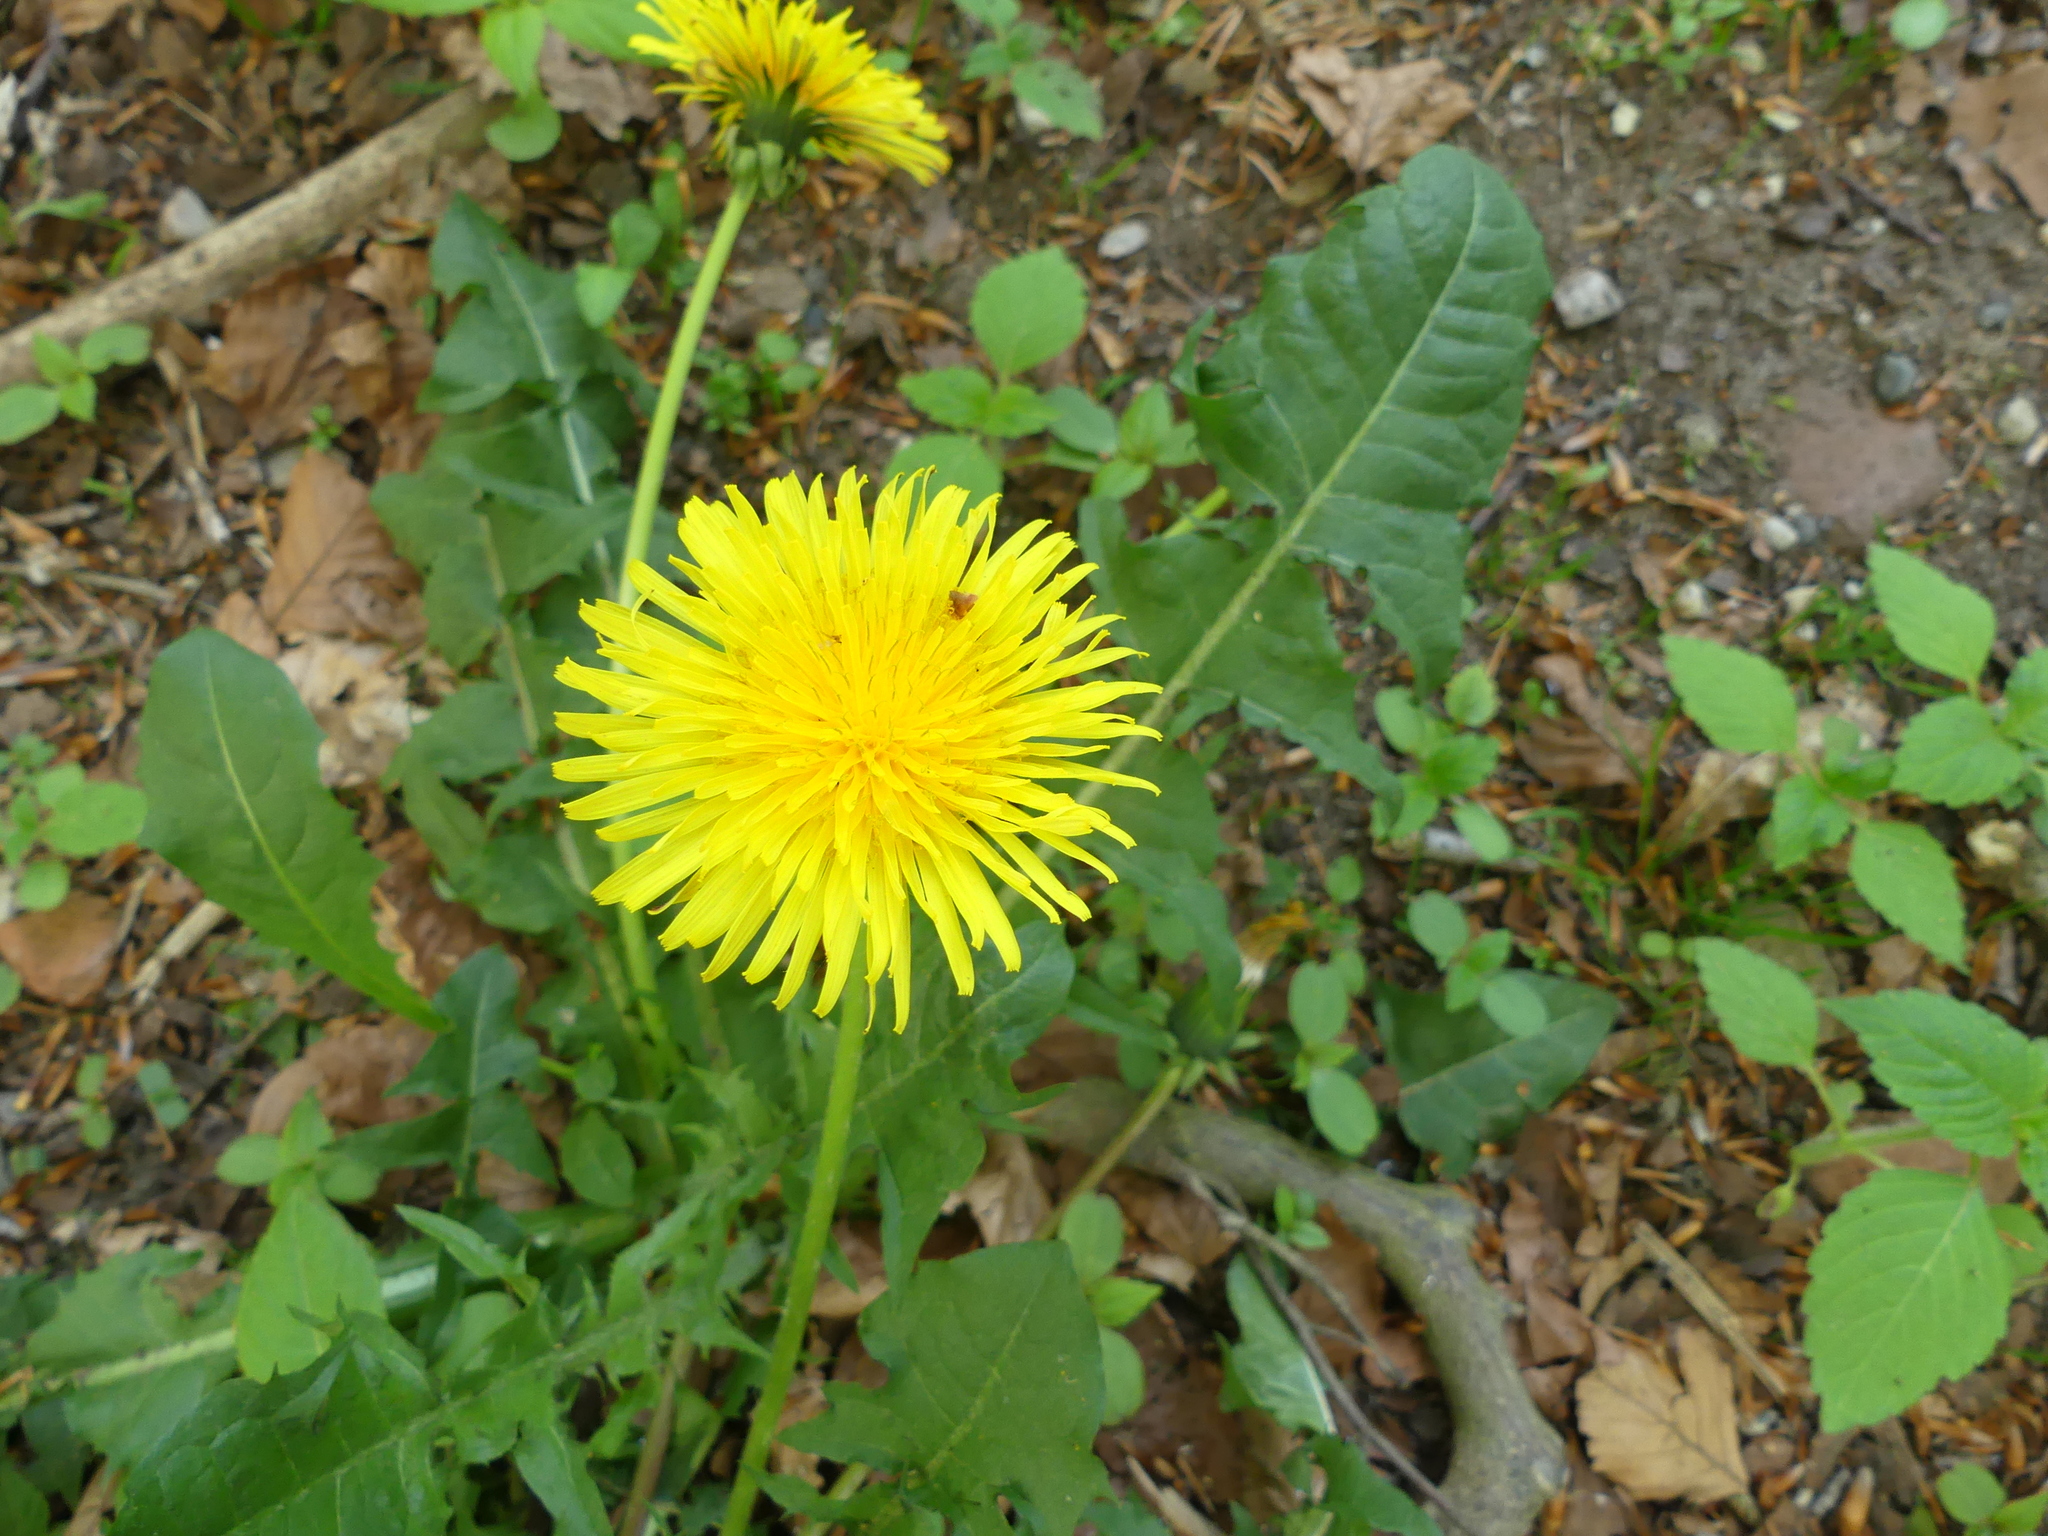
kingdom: Plantae
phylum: Tracheophyta
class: Magnoliopsida
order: Asterales
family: Asteraceae
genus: Taraxacum
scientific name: Taraxacum officinale
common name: Common dandelion
